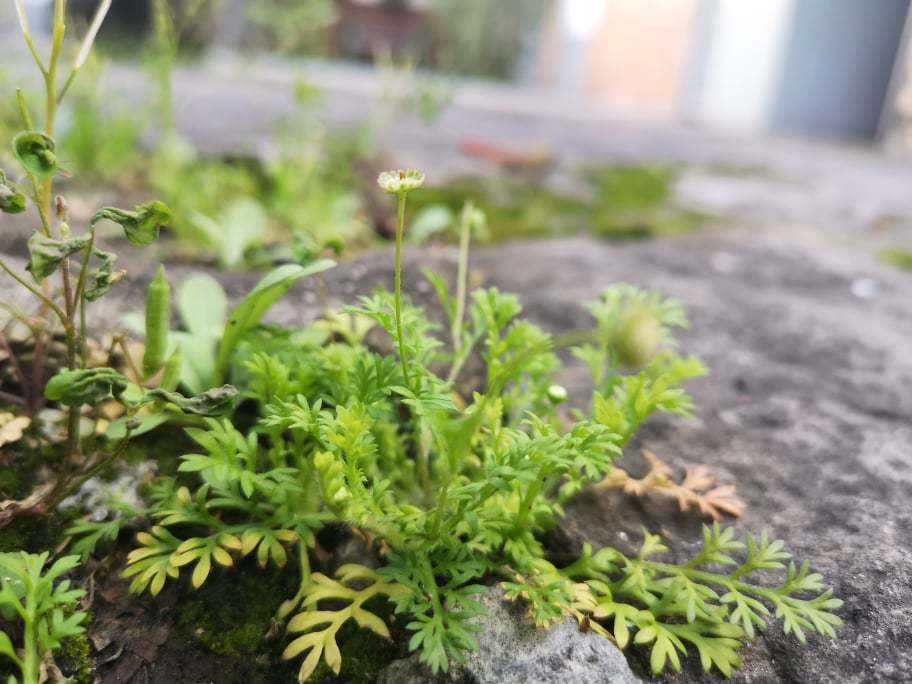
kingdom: Plantae
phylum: Tracheophyta
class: Magnoliopsida
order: Asterales
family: Asteraceae
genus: Cotula
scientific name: Cotula australis
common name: Australian waterbuttons
